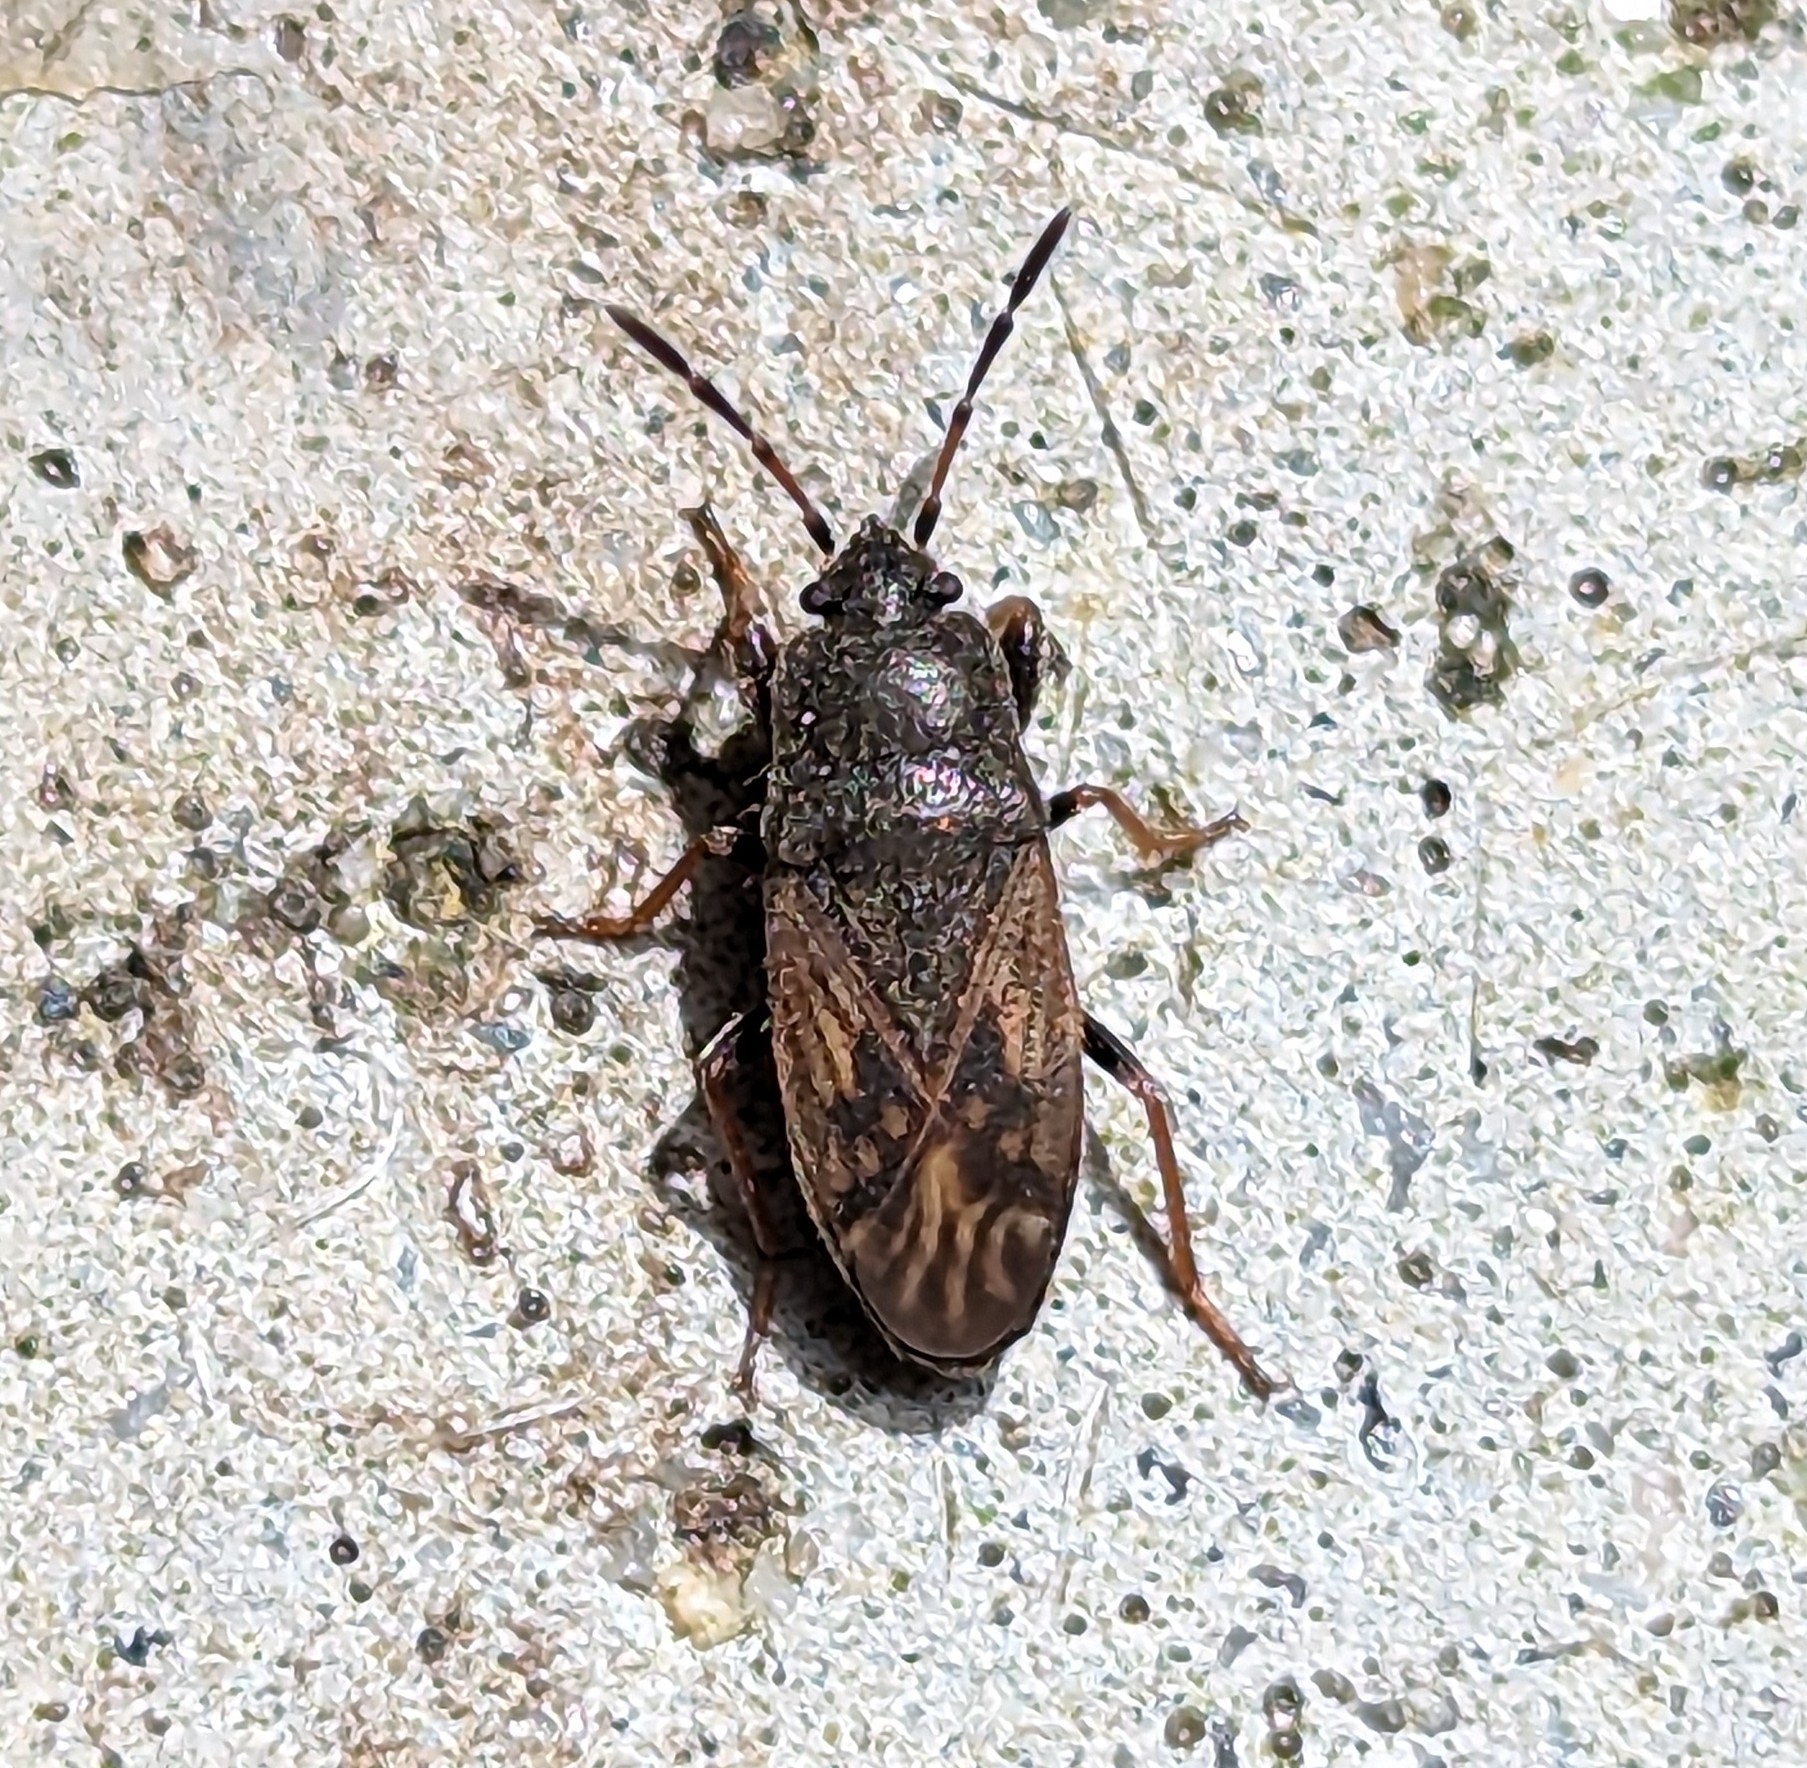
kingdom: Animalia
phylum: Arthropoda
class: Insecta
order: Hemiptera
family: Rhyparochromidae
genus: Megalonotus
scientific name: Megalonotus sabulicola
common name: Seed bug
